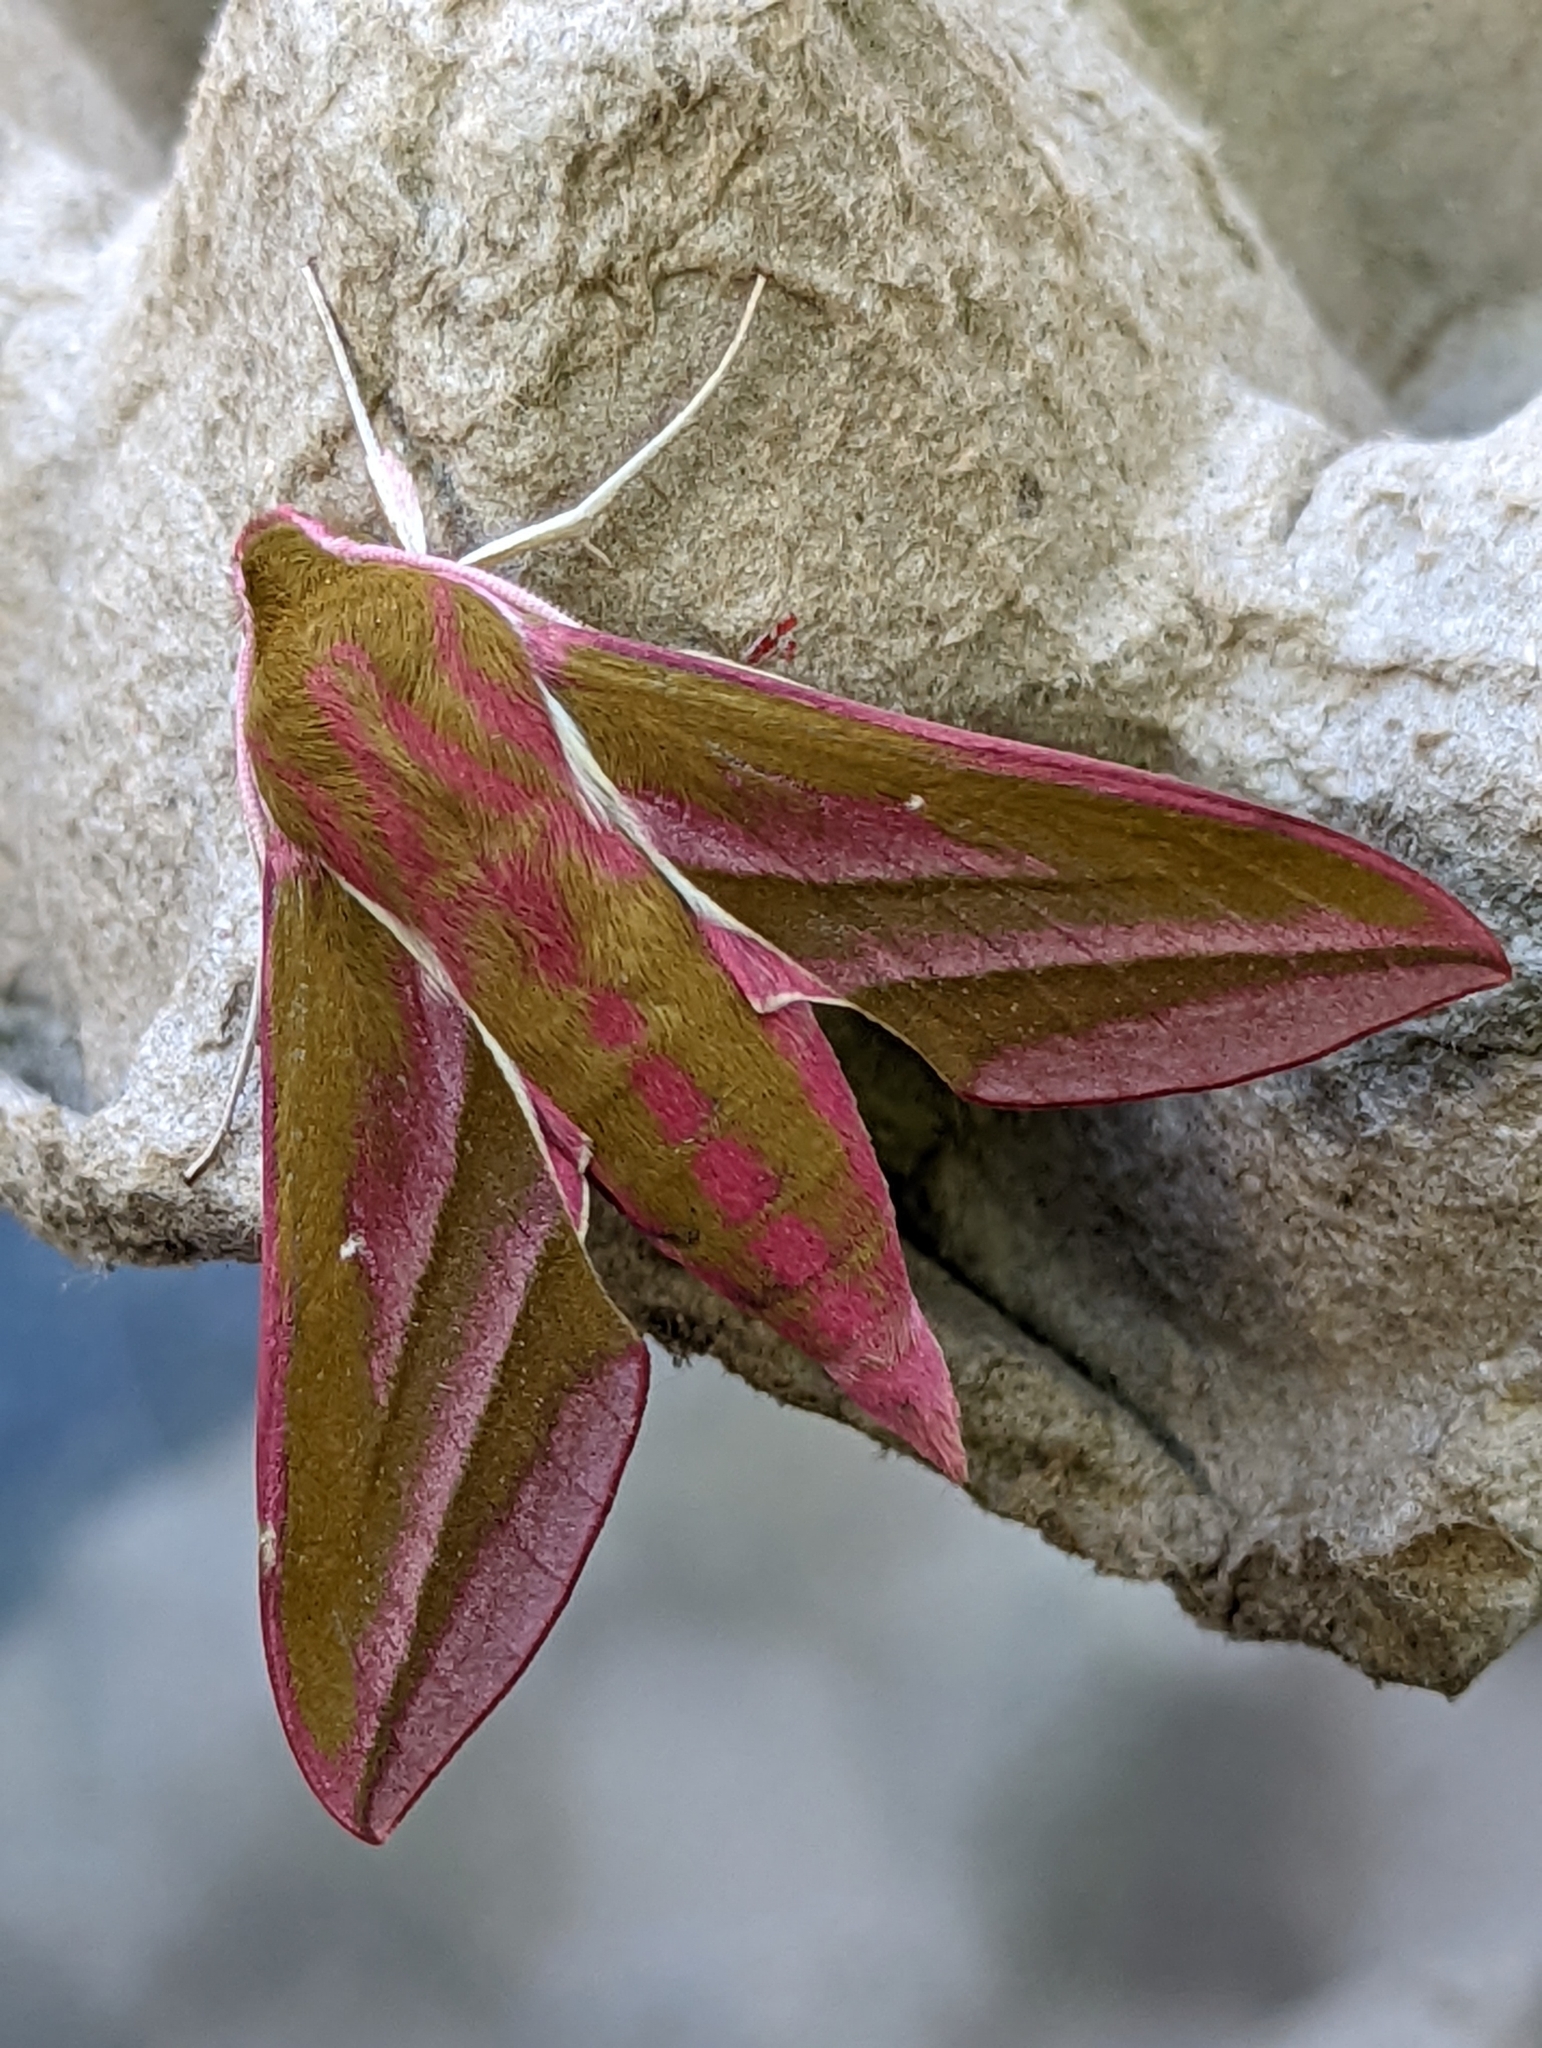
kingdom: Animalia
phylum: Arthropoda
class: Insecta
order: Lepidoptera
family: Sphingidae
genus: Deilephila
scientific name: Deilephila elpenor
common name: Elephant hawk-moth
